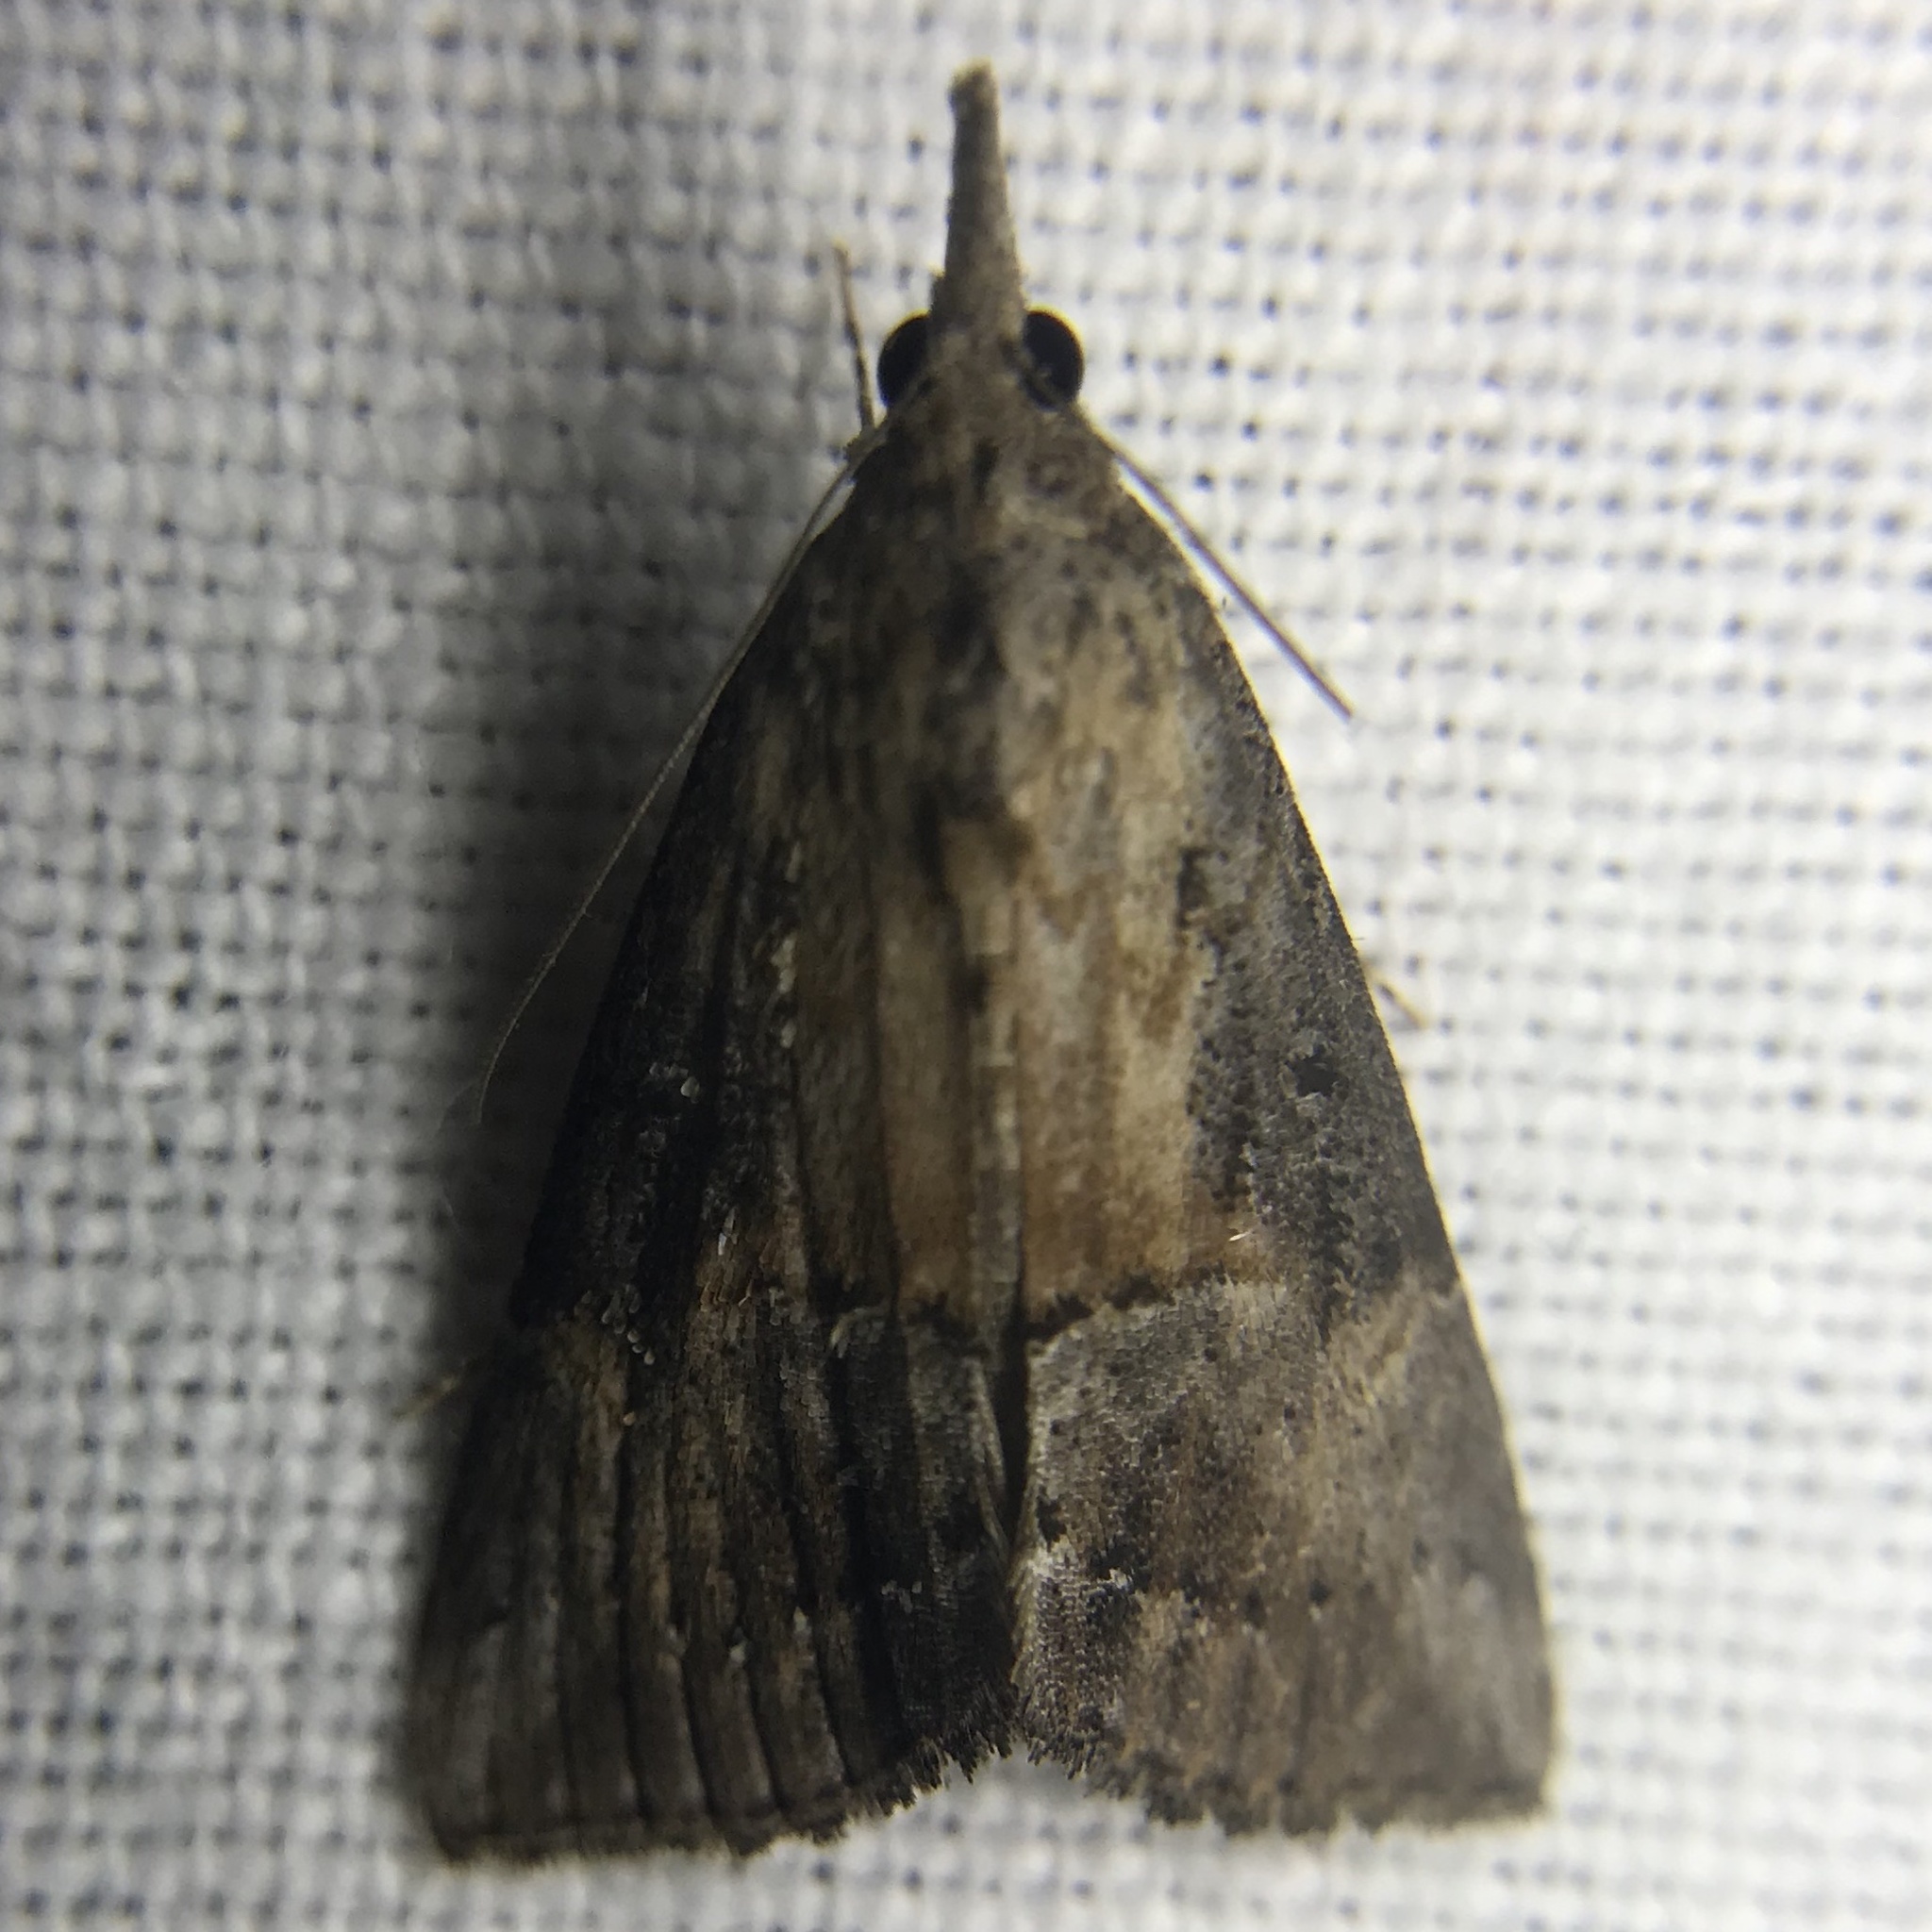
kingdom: Animalia
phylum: Arthropoda
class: Insecta
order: Lepidoptera
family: Erebidae
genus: Hypena
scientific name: Hypena scabra
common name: Green cloverworm
